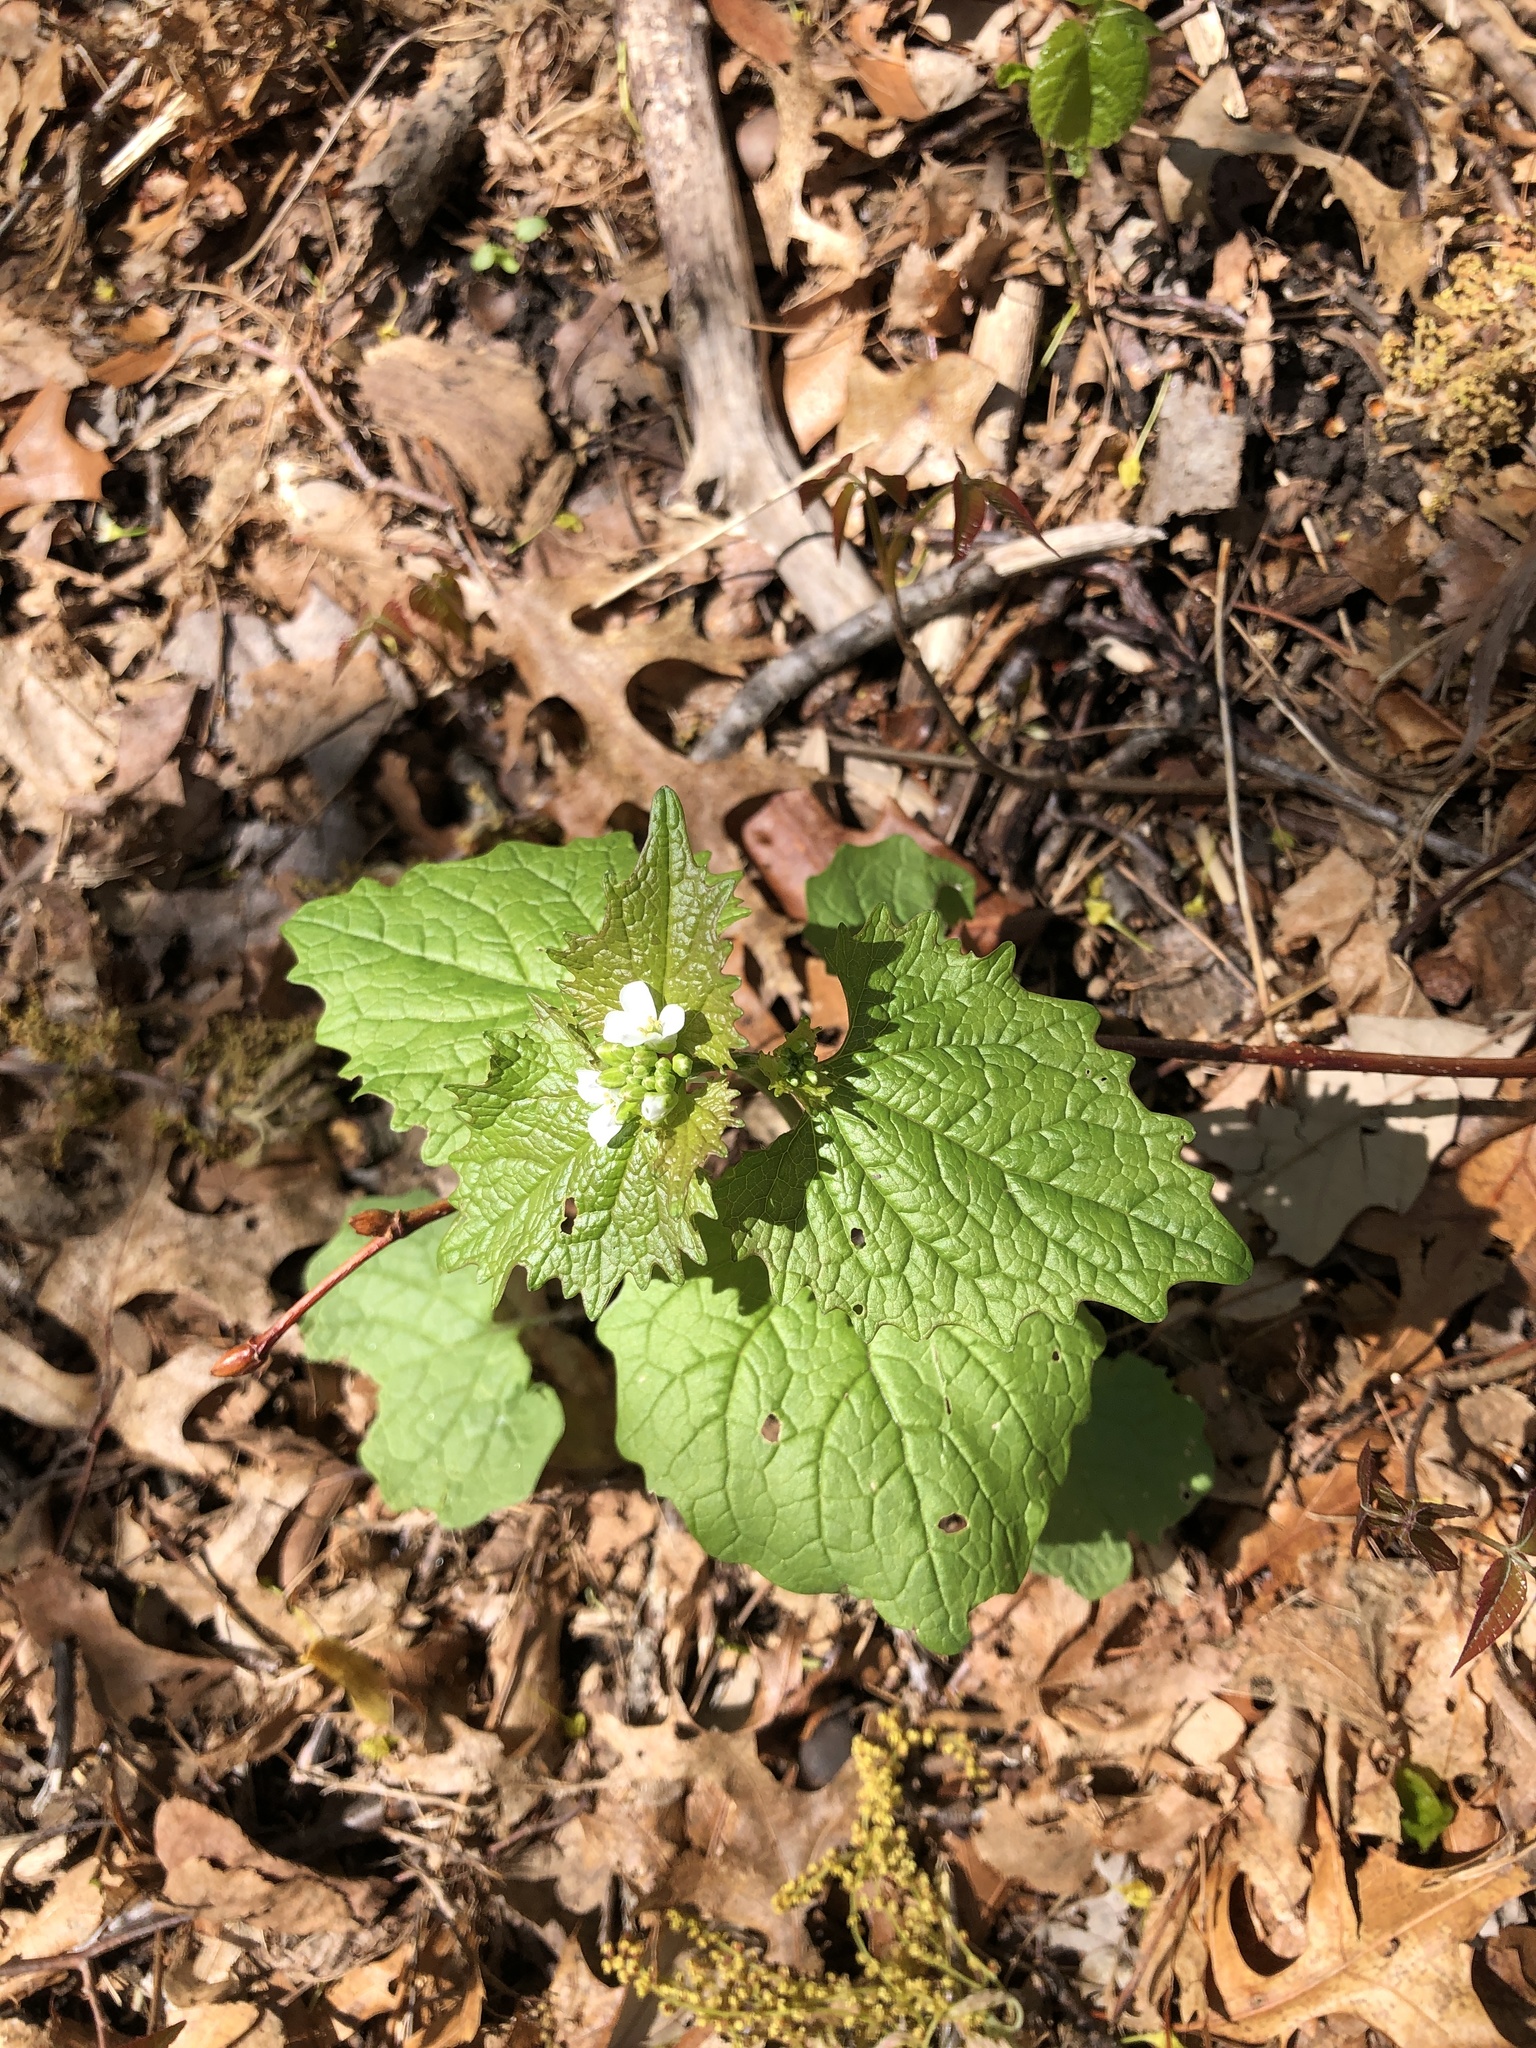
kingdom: Plantae
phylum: Tracheophyta
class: Magnoliopsida
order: Brassicales
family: Brassicaceae
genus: Alliaria
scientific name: Alliaria petiolata
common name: Garlic mustard
